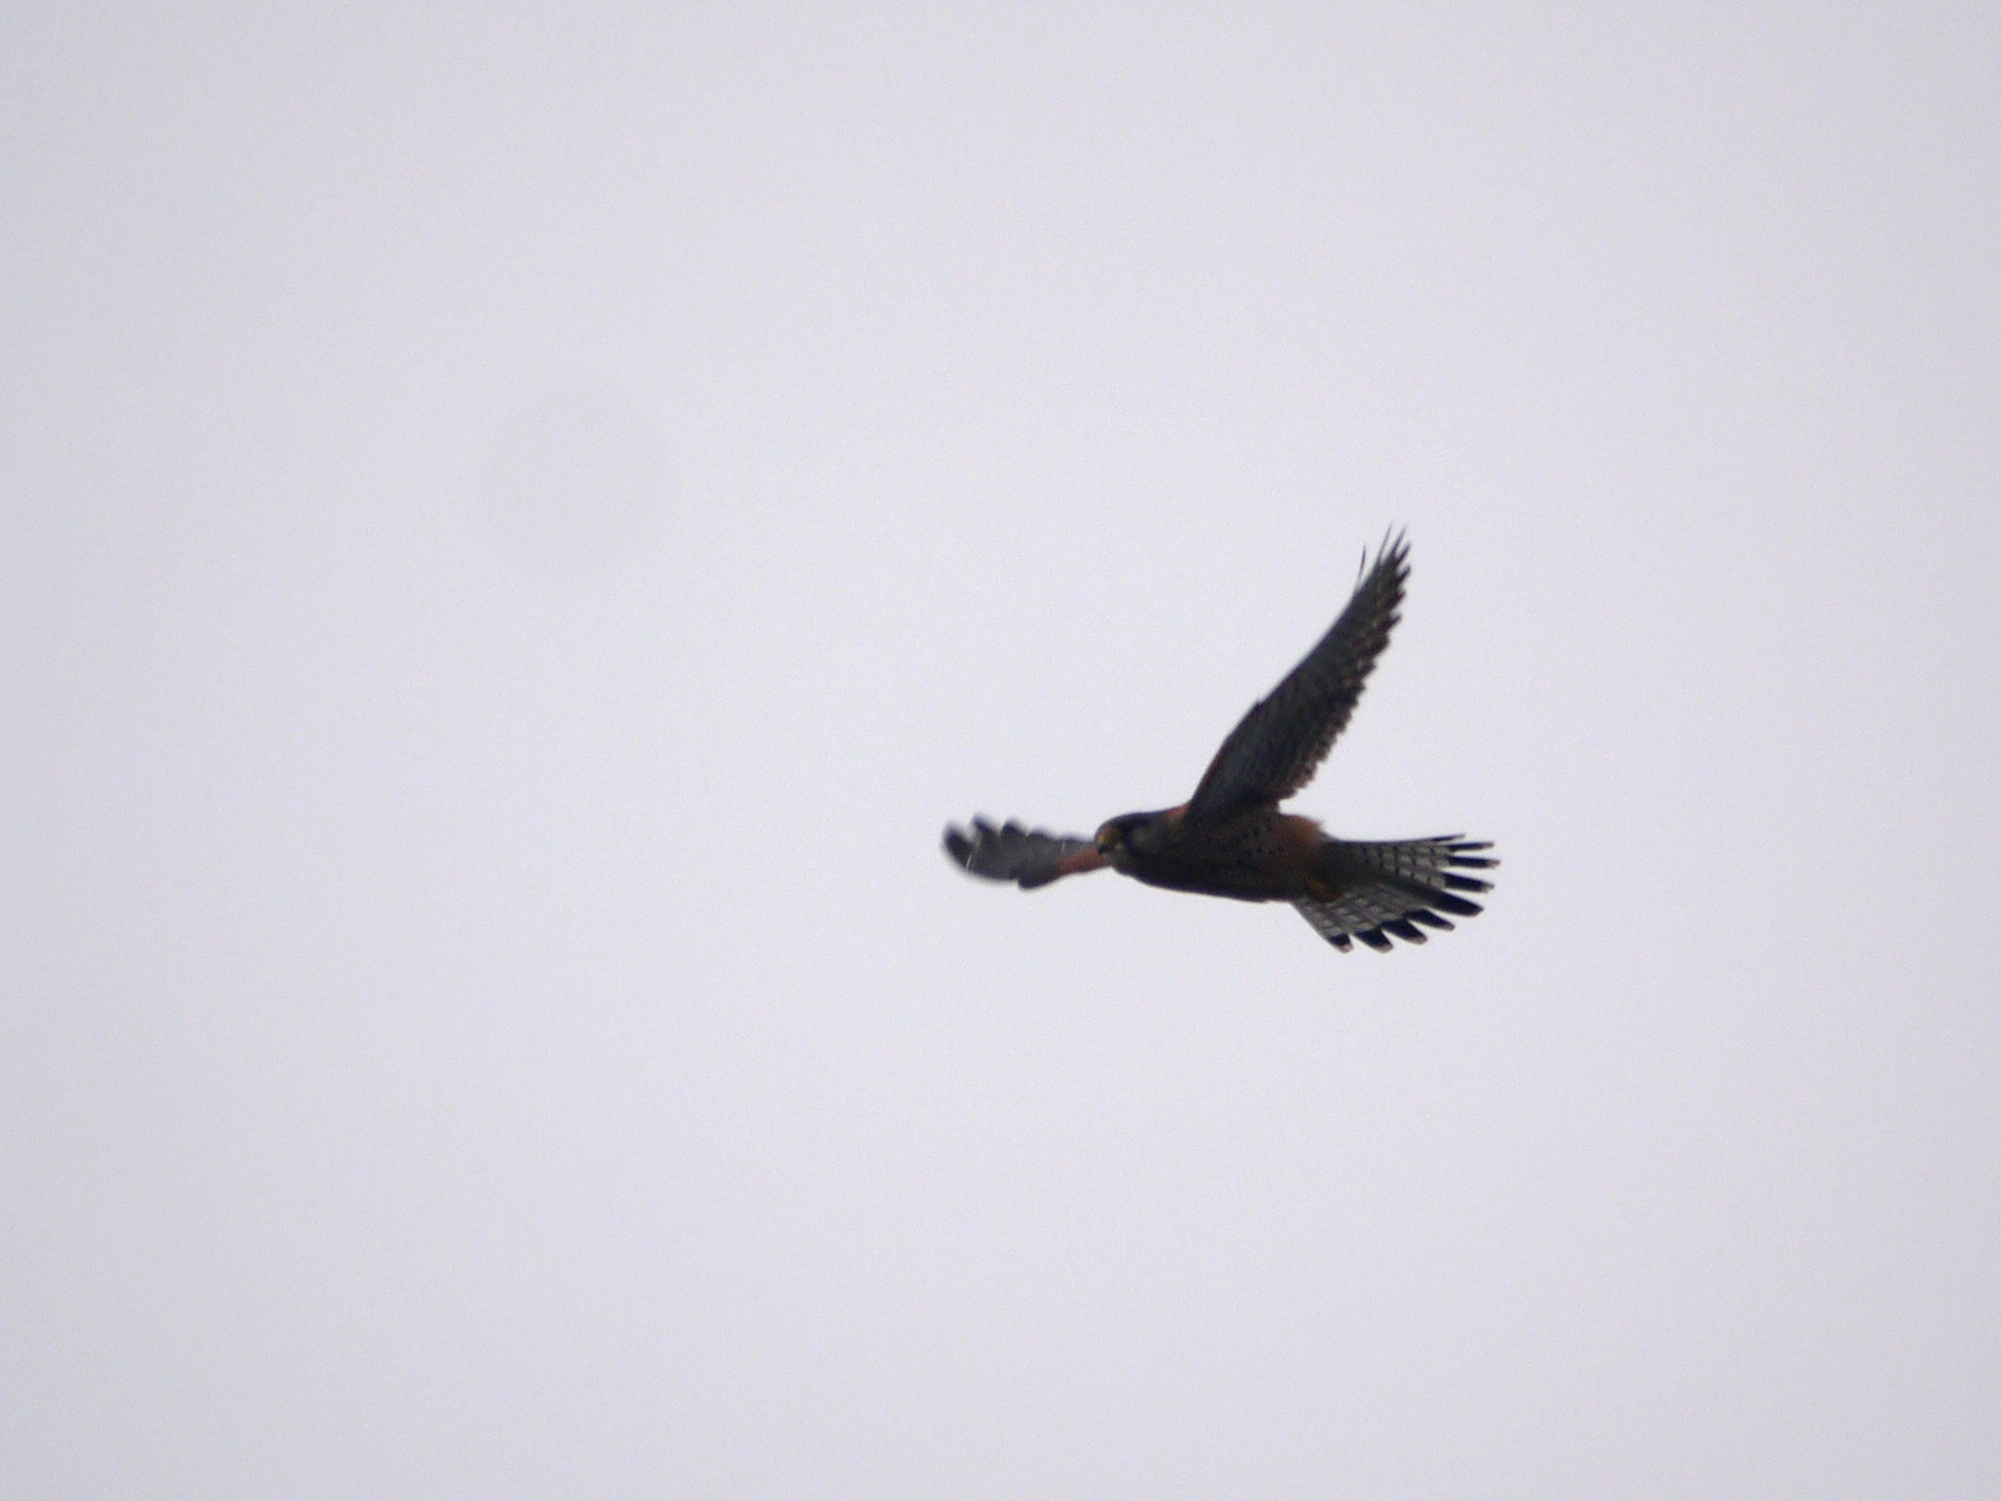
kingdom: Animalia
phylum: Chordata
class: Aves
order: Falconiformes
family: Falconidae
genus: Falco
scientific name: Falco tinnunculus
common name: Common kestrel
